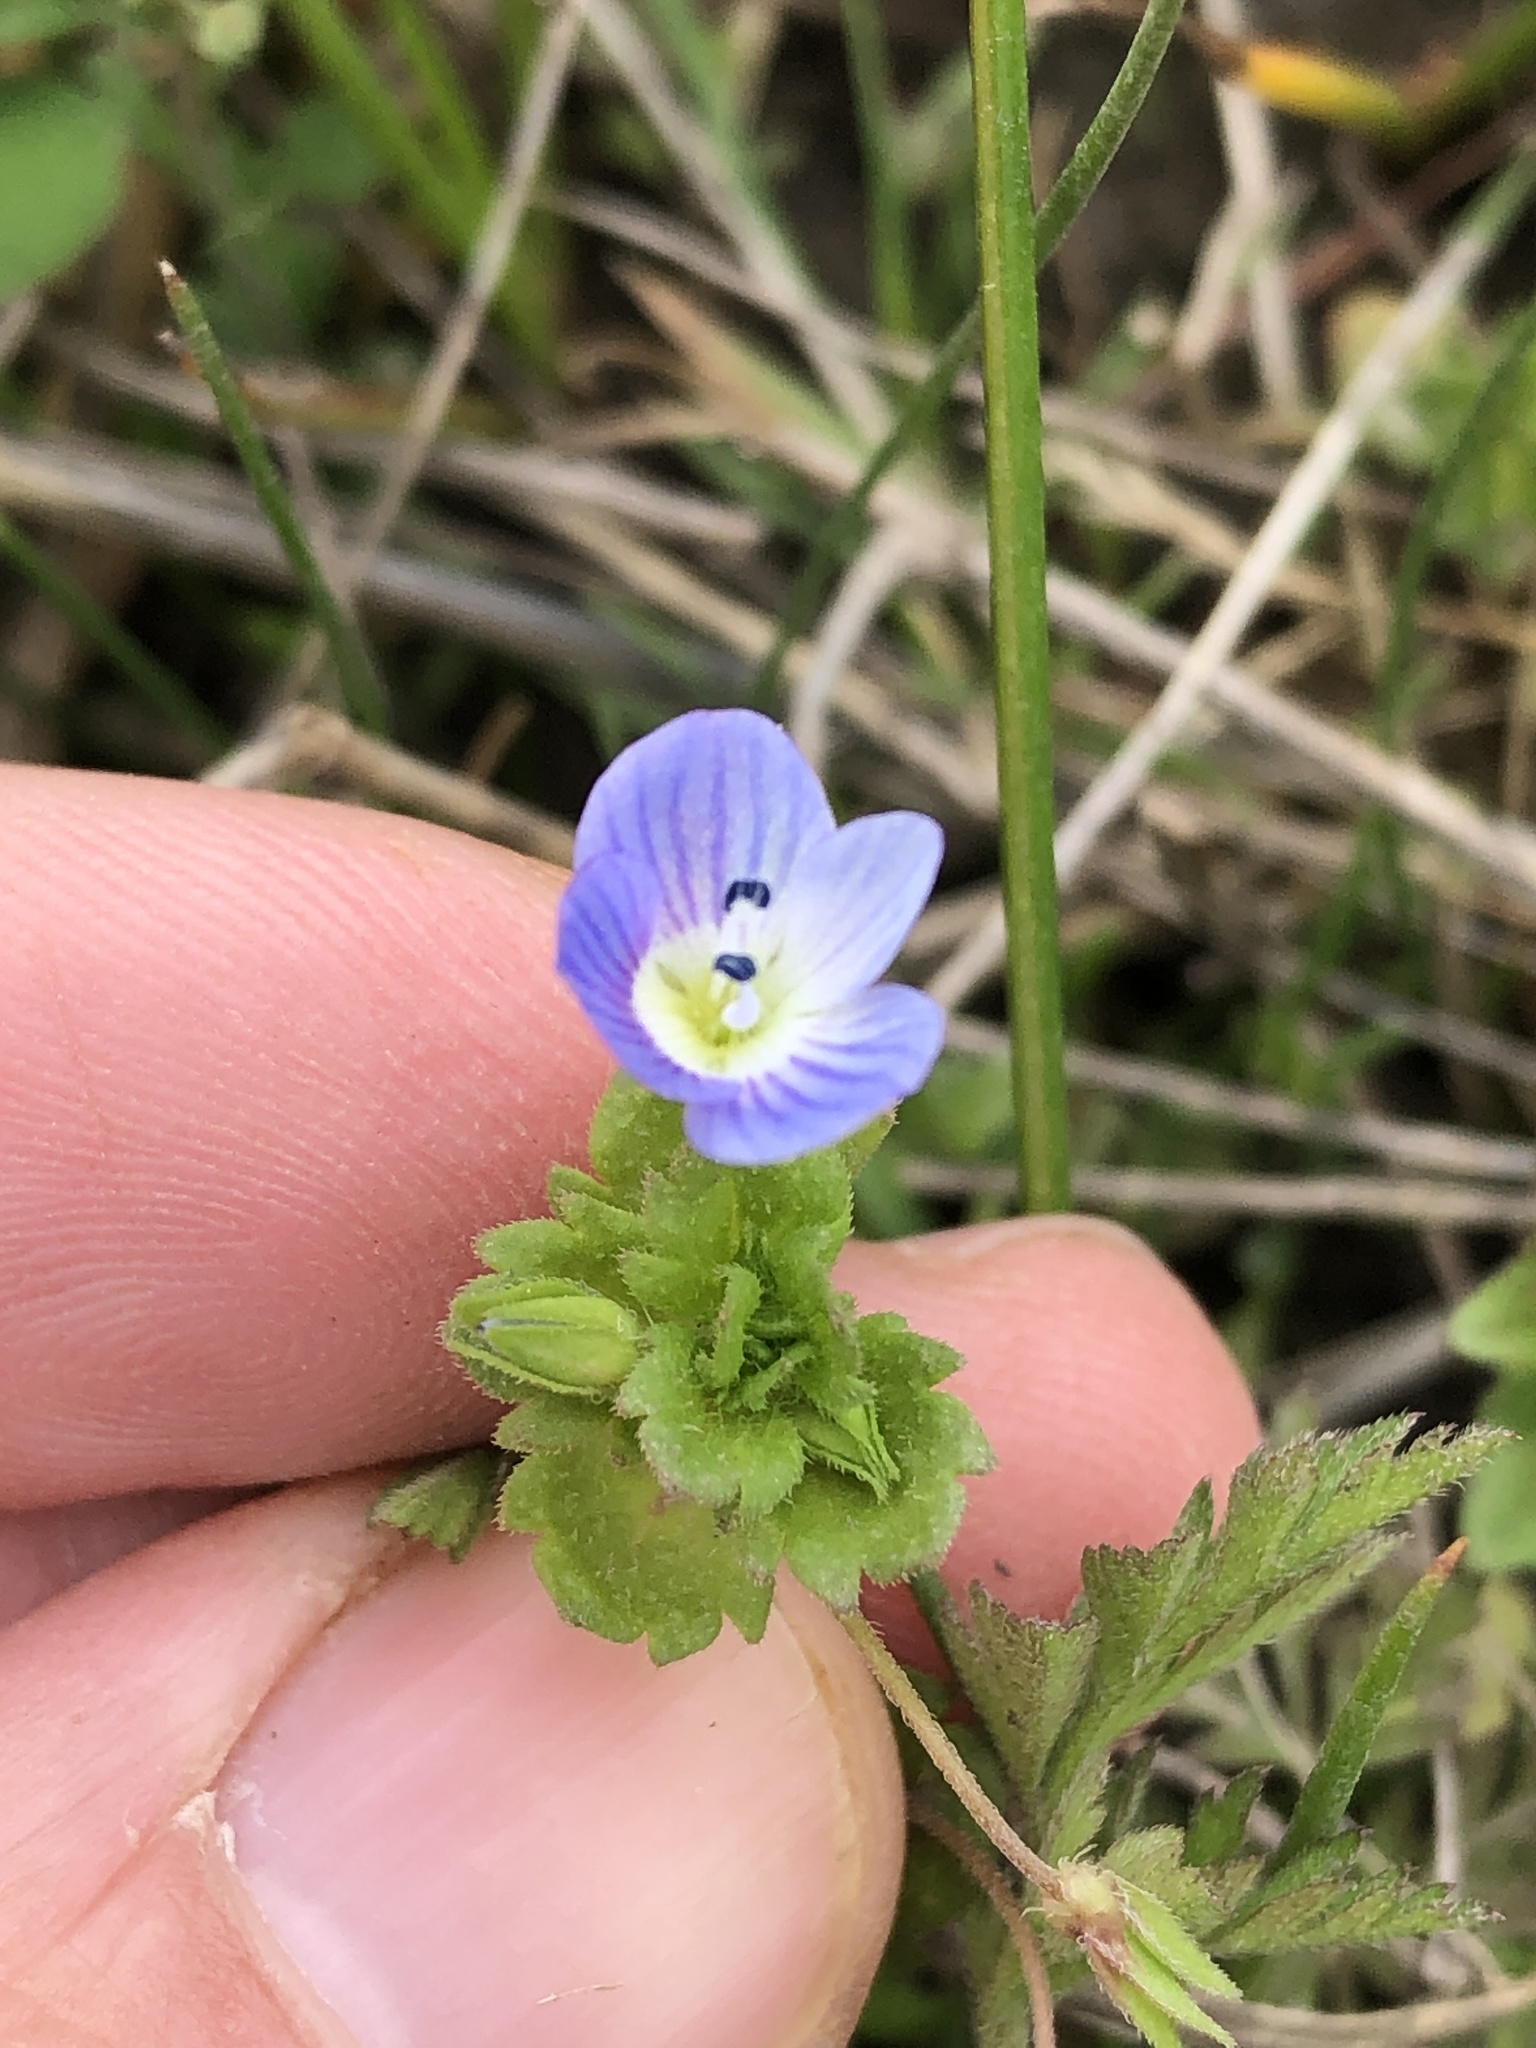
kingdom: Plantae
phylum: Tracheophyta
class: Magnoliopsida
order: Lamiales
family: Plantaginaceae
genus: Veronica
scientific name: Veronica persica
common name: Common field-speedwell
